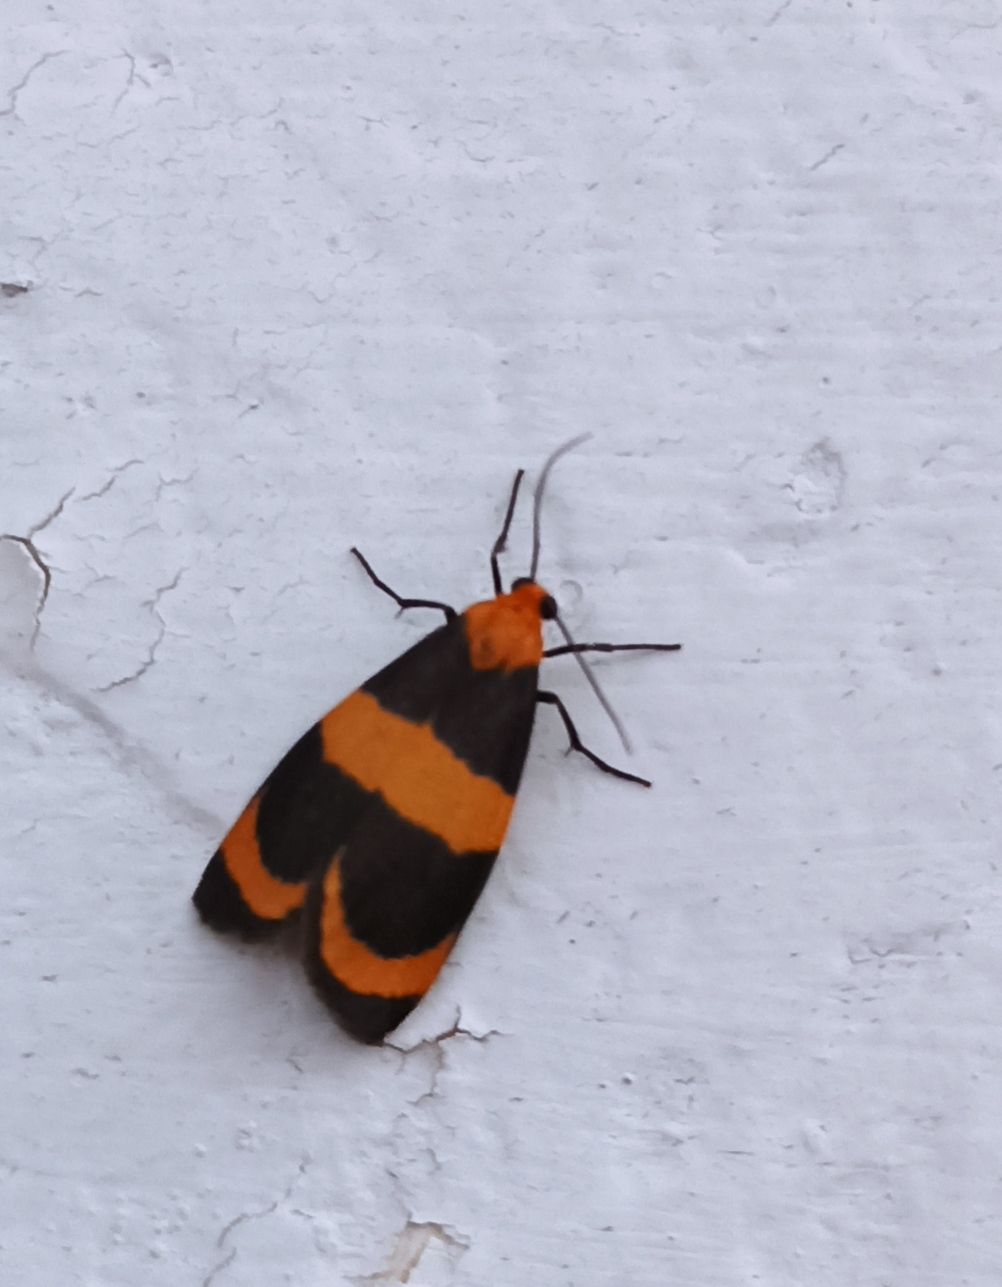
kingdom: Animalia
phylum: Arthropoda
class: Insecta
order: Lepidoptera
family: Erebidae
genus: Eudesmia
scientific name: Eudesmia menea
